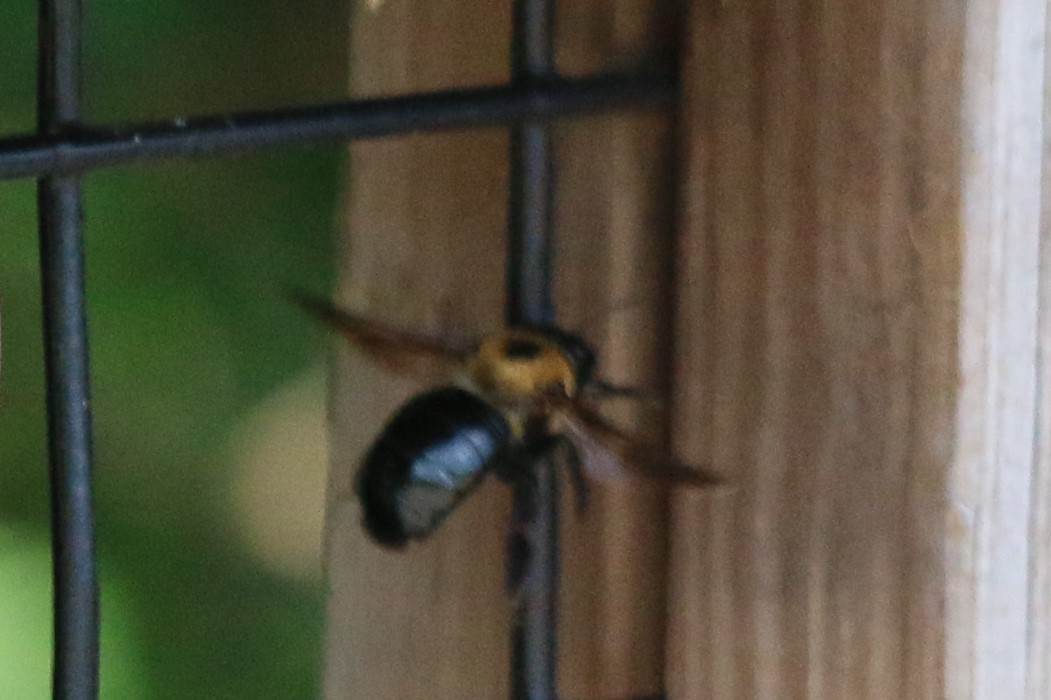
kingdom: Animalia
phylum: Arthropoda
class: Insecta
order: Hymenoptera
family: Apidae
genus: Xylocopa
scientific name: Xylocopa virginica
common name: Carpenter bee
